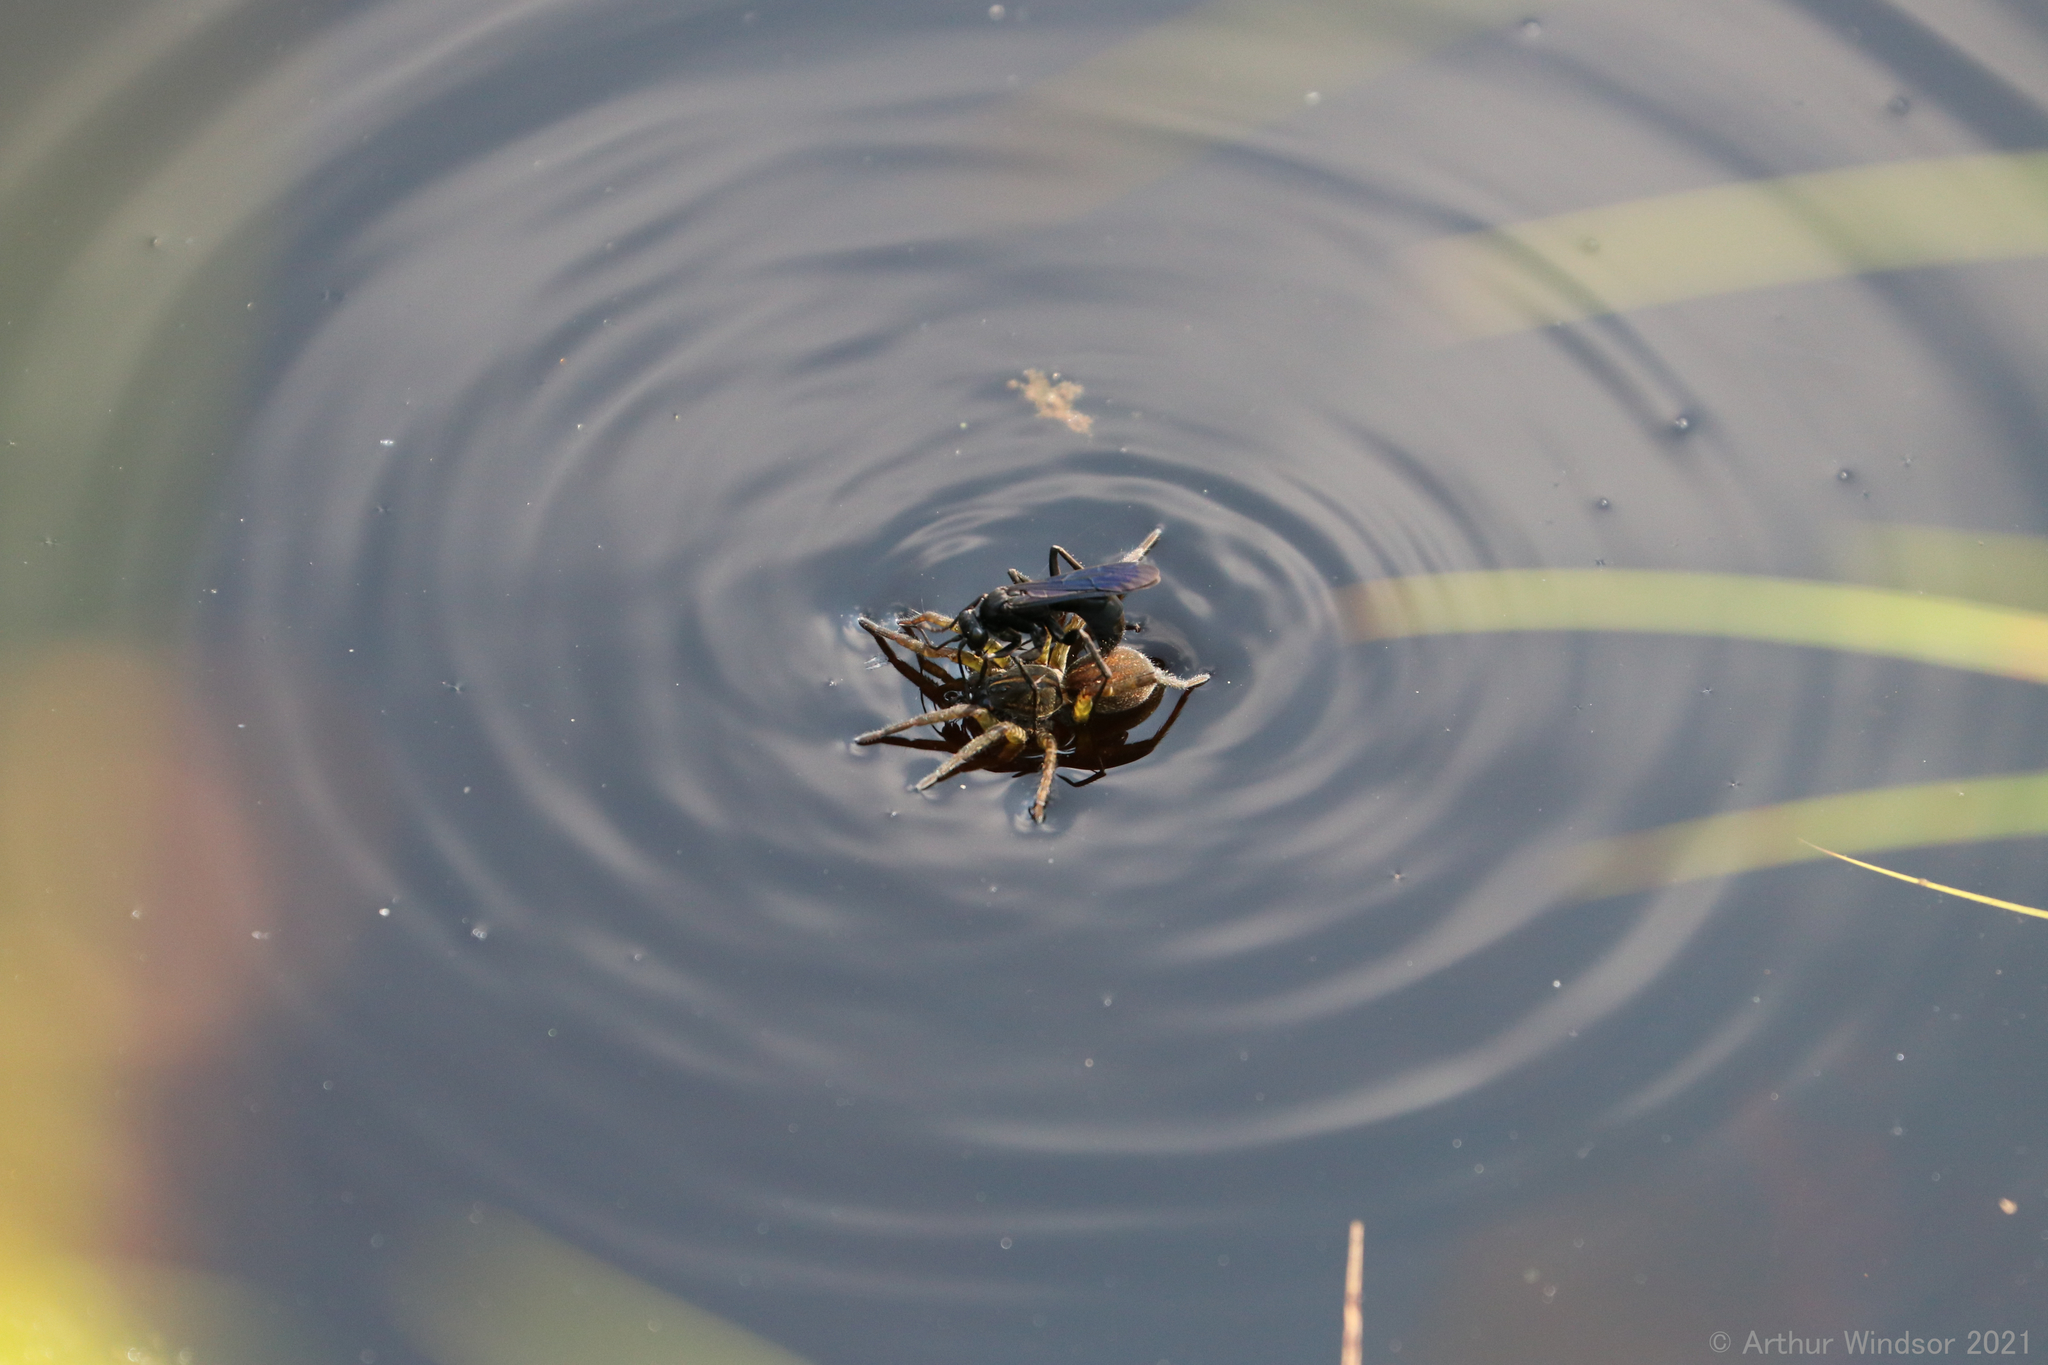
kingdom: Animalia
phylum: Arthropoda
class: Insecta
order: Hymenoptera
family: Pompilidae
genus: Anoplius
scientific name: Anoplius depressipes
